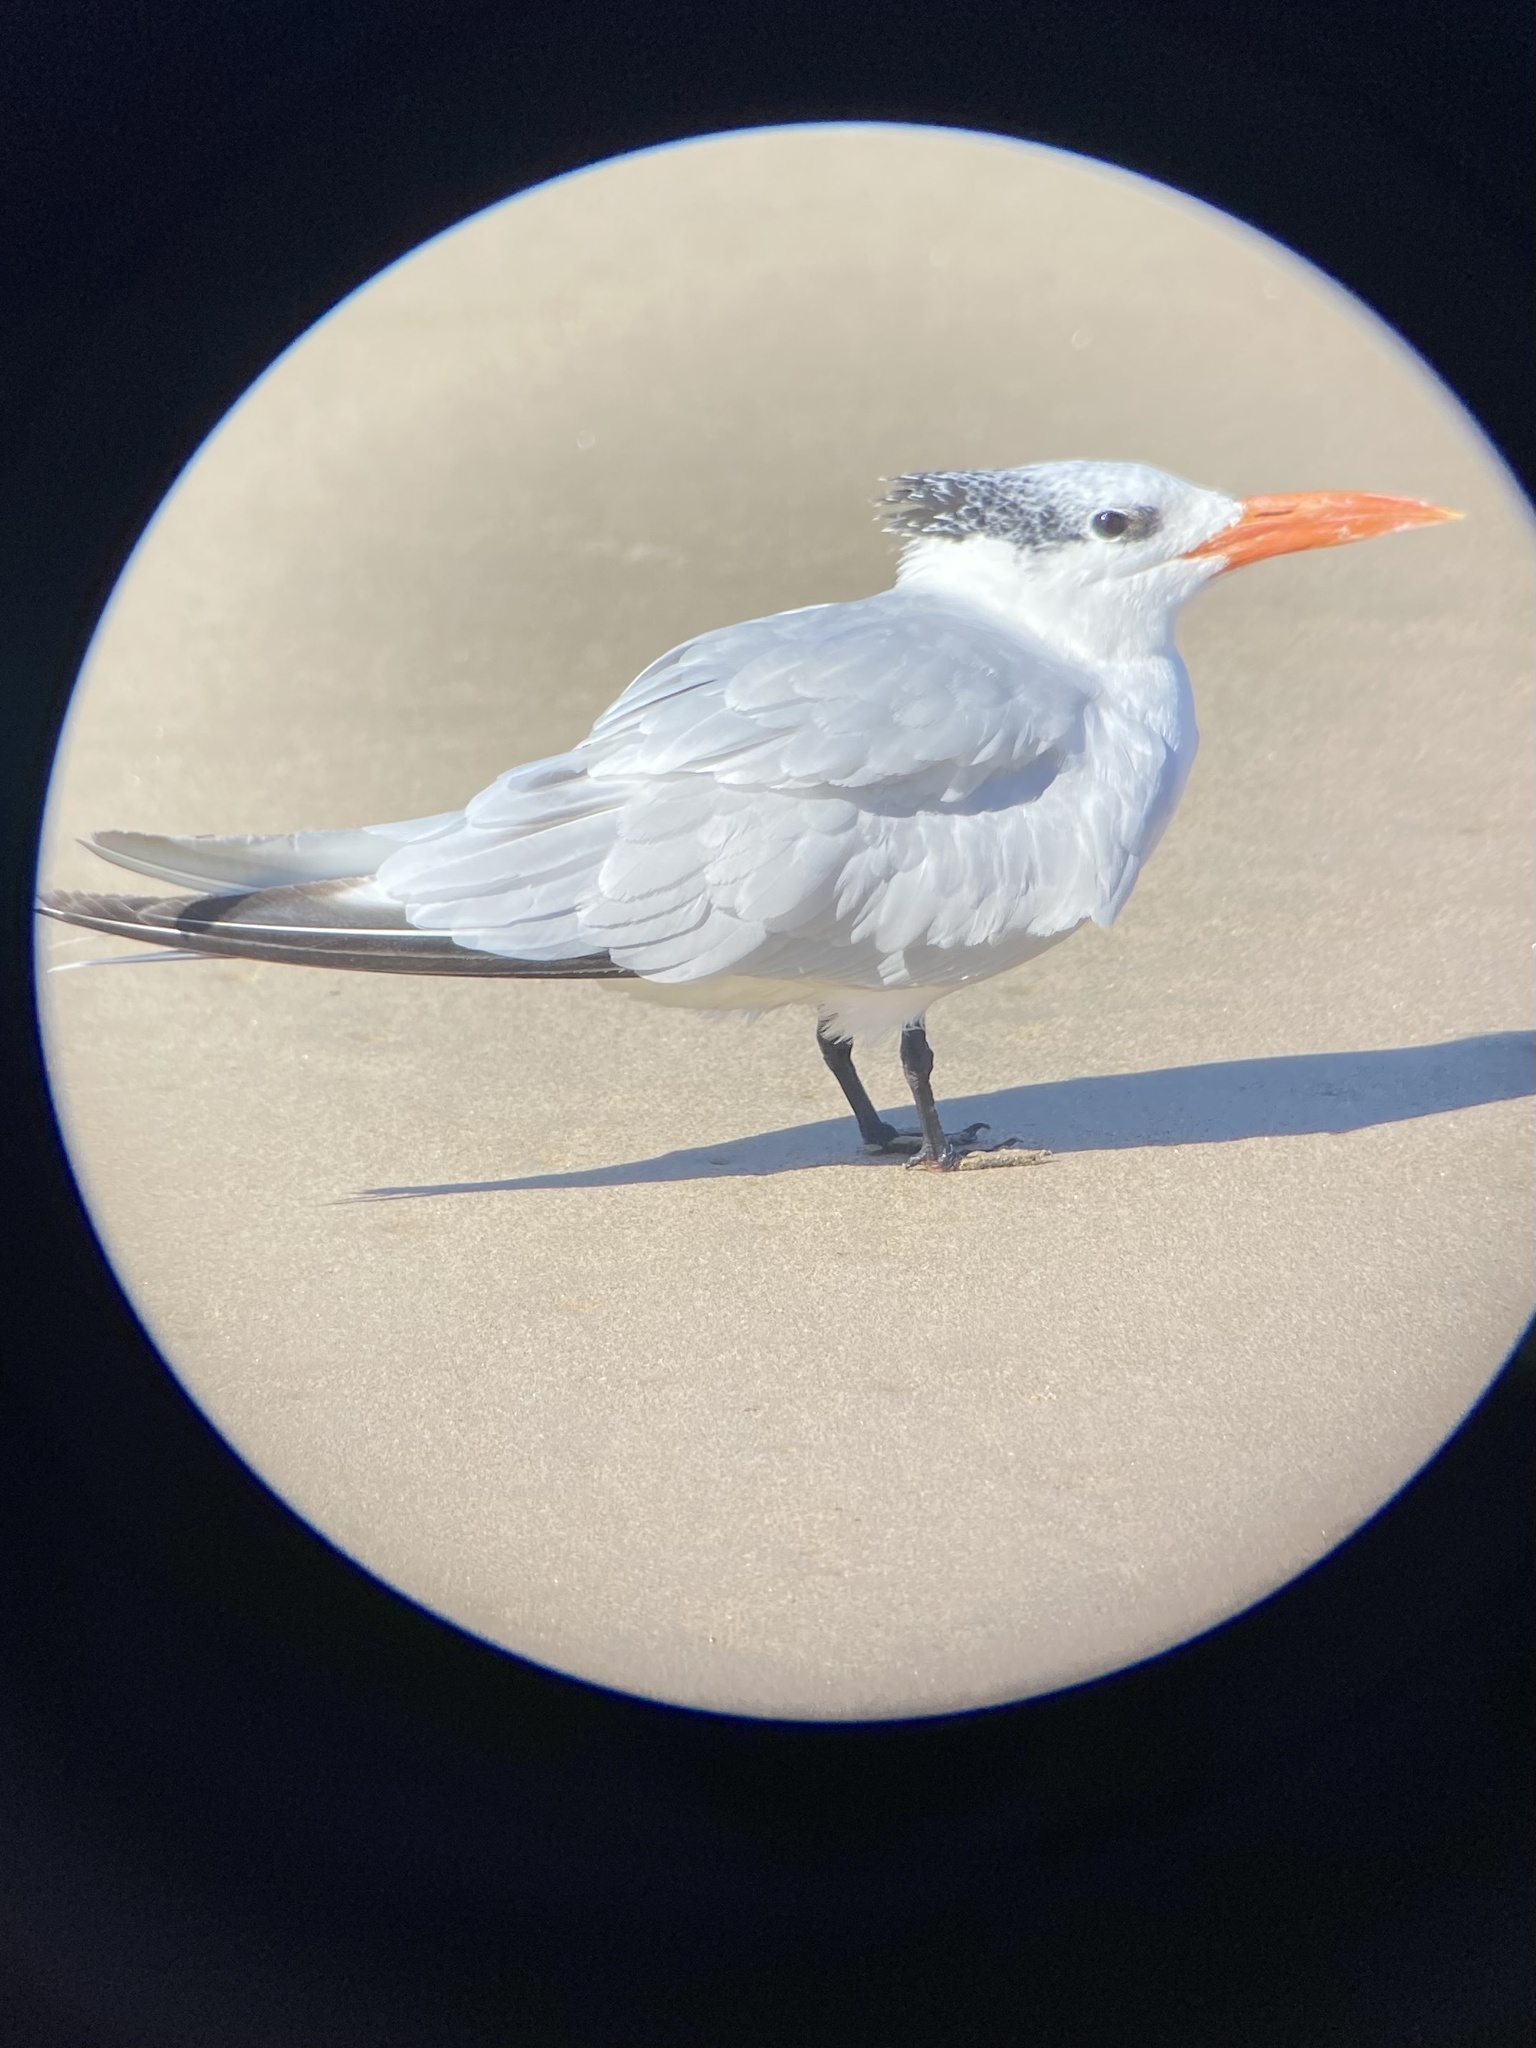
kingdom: Animalia
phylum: Chordata
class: Aves
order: Charadriiformes
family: Laridae
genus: Thalasseus
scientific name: Thalasseus maximus
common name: Royal tern
